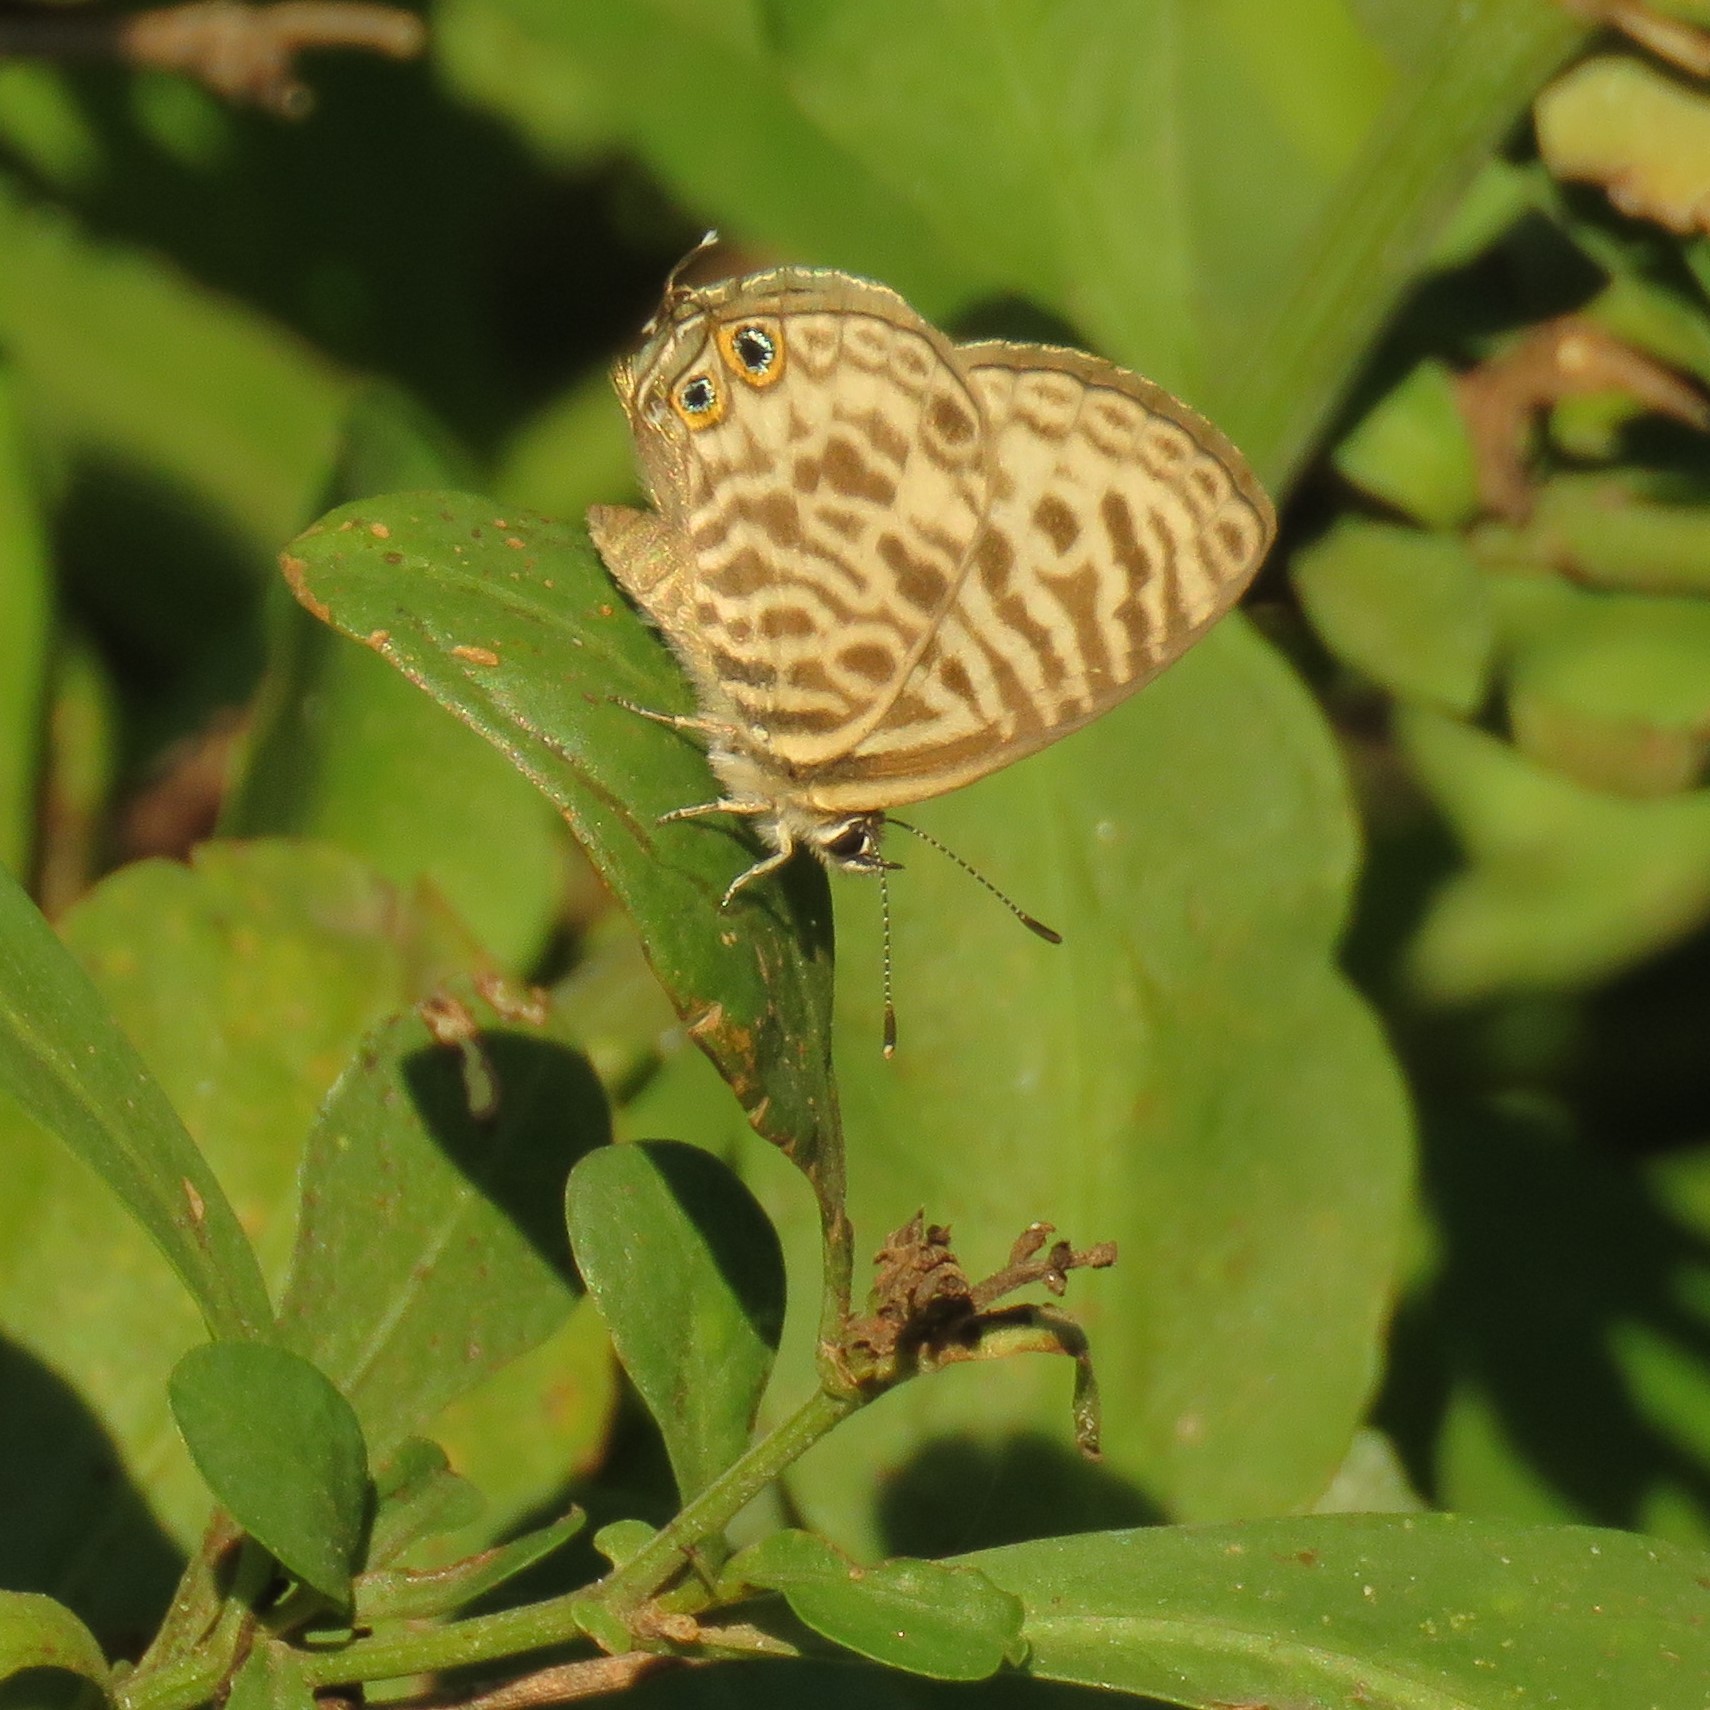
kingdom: Animalia
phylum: Arthropoda
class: Insecta
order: Lepidoptera
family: Lycaenidae
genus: Leptotes
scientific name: Leptotes
